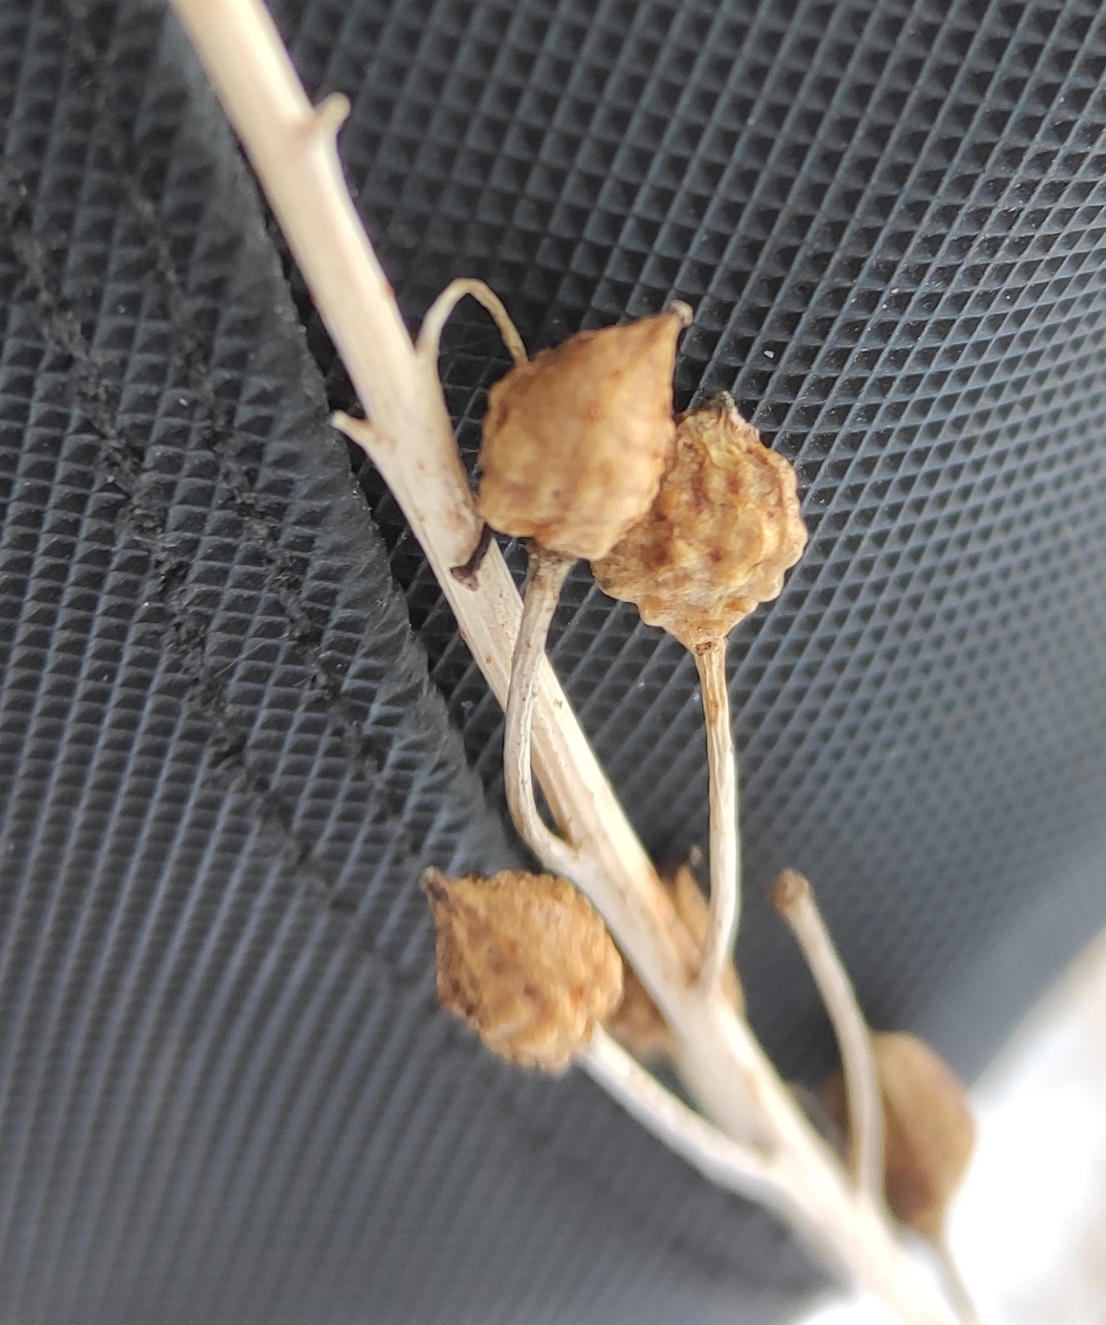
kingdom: Plantae
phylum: Tracheophyta
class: Magnoliopsida
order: Brassicales
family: Brassicaceae
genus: Bunias
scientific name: Bunias orientalis
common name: Warty-cabbage
